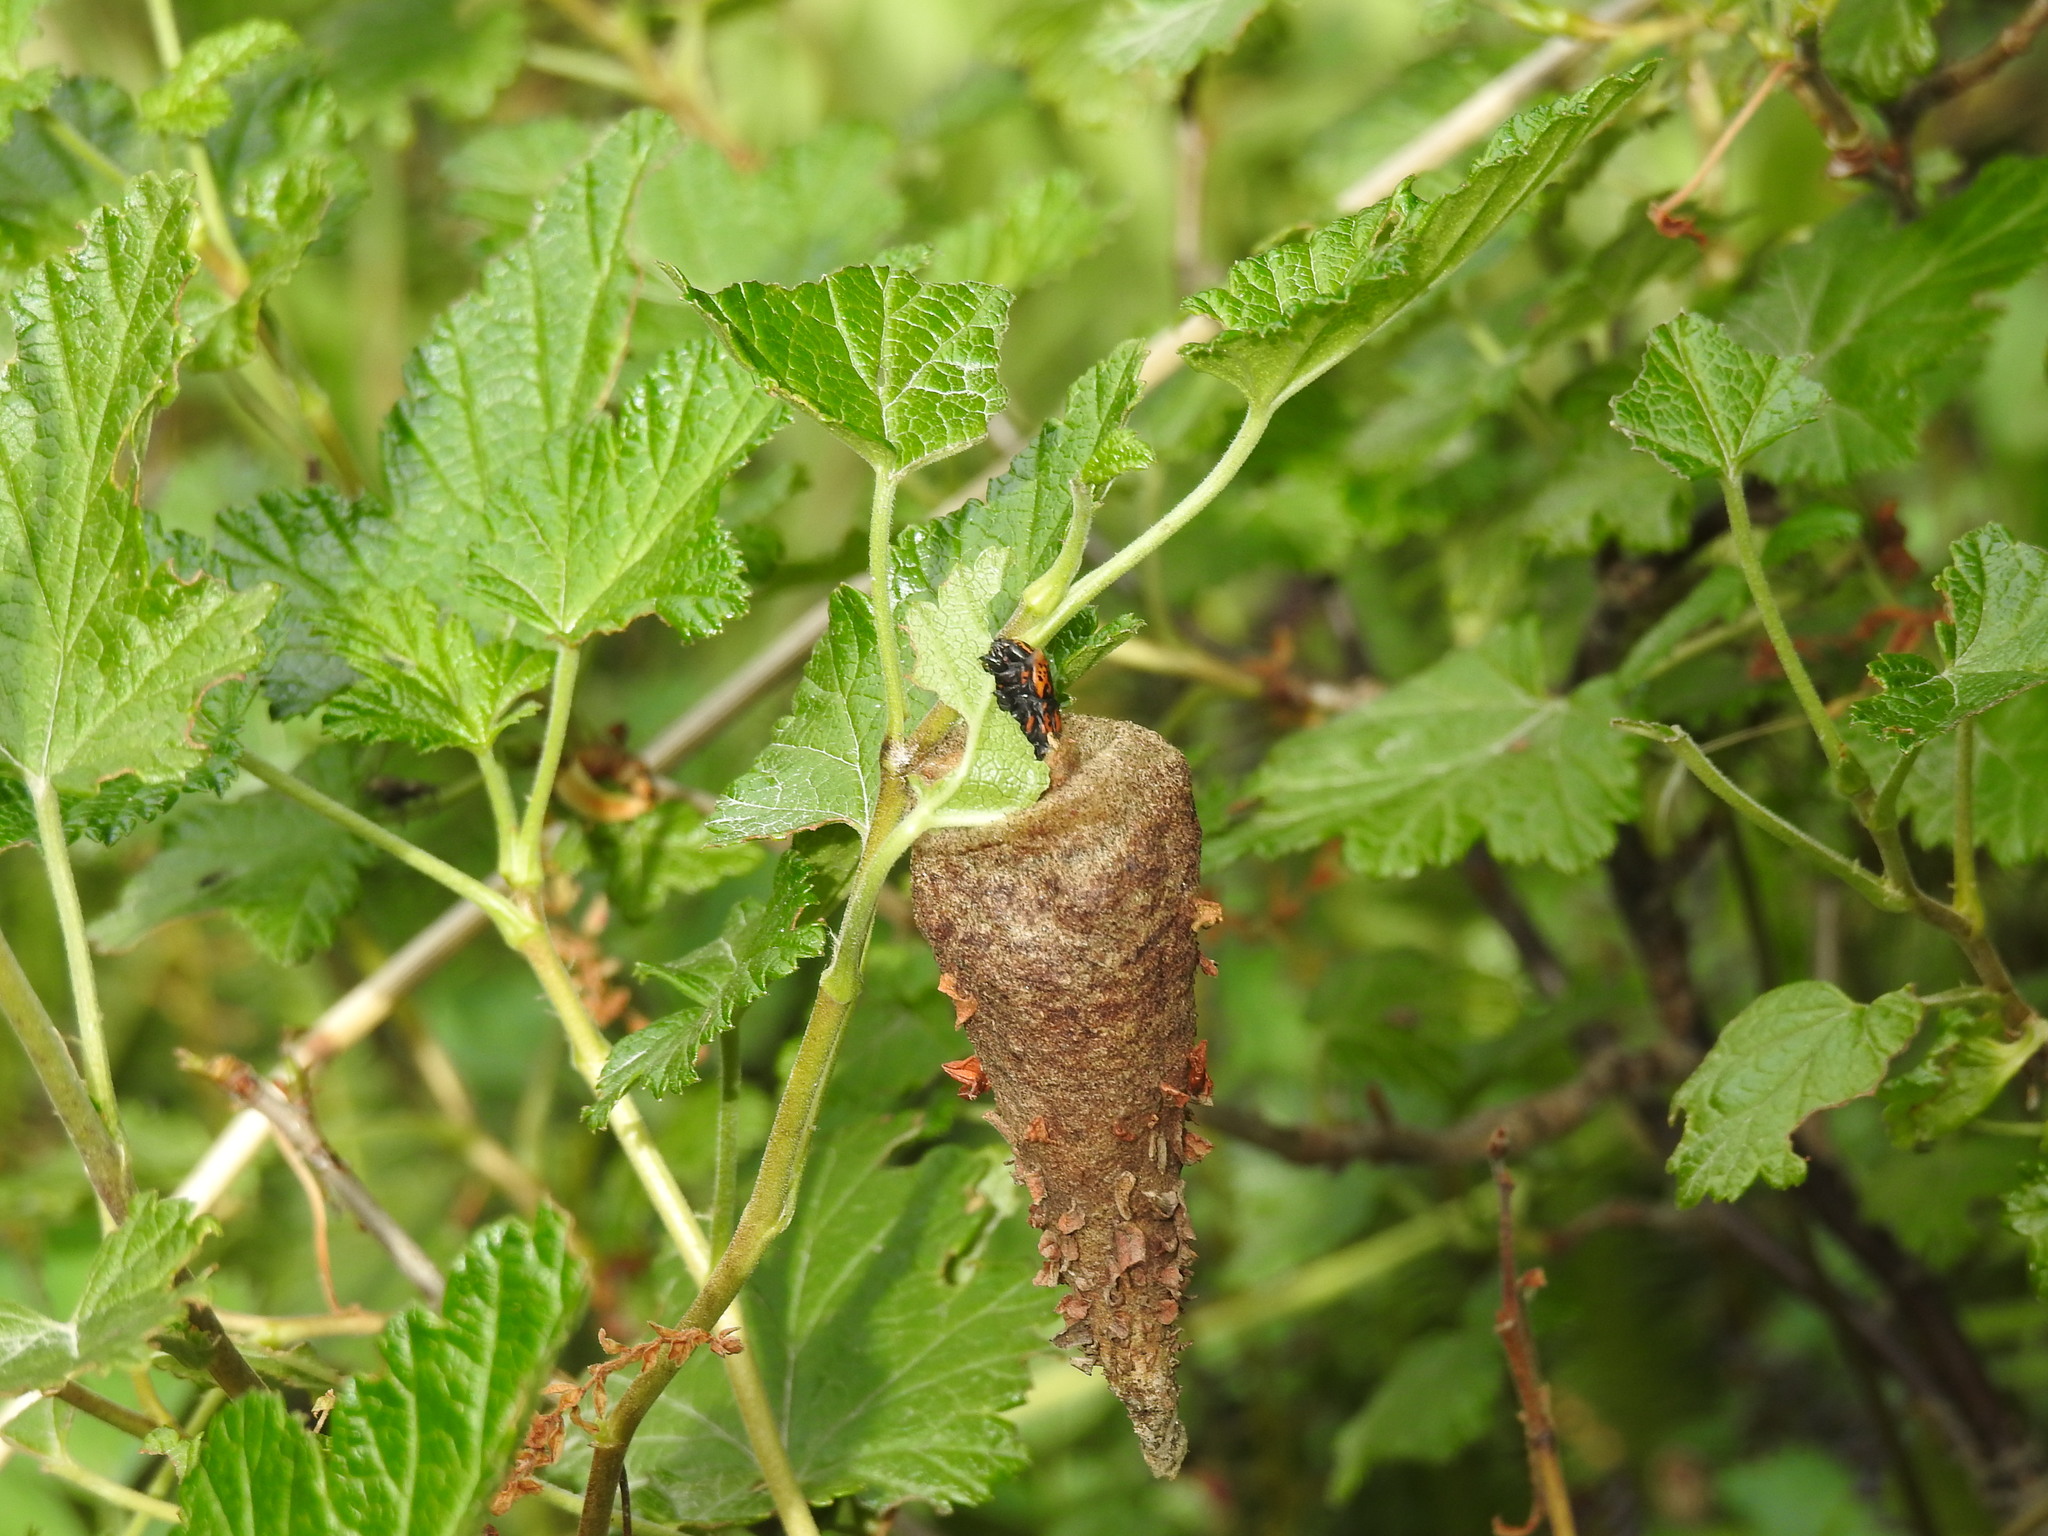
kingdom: Animalia
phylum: Arthropoda
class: Insecta
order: Lepidoptera
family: Psychidae
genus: Thanatopsyche
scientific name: Thanatopsyche chilensis
